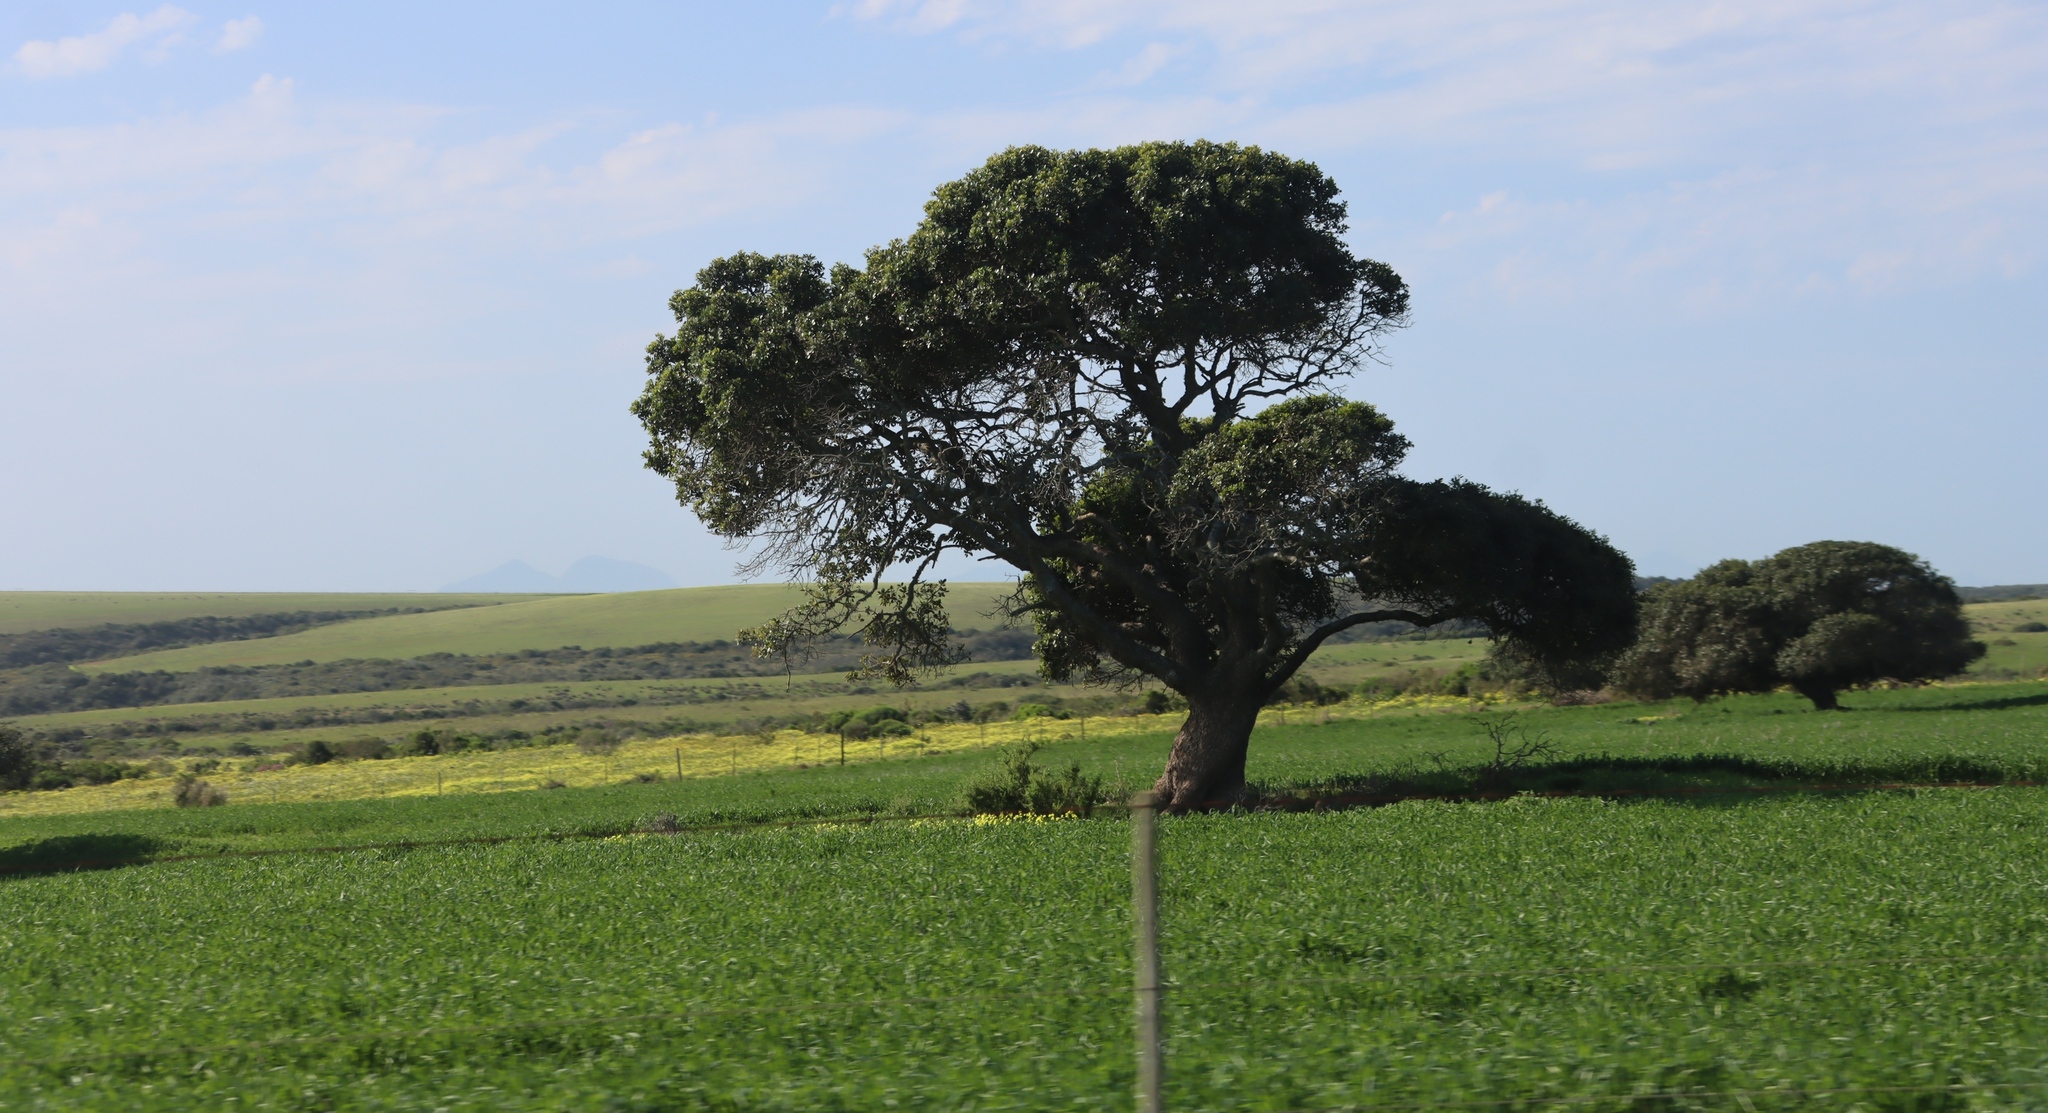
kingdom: Plantae
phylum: Tracheophyta
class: Magnoliopsida
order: Ericales
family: Sapotaceae
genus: Sideroxylon
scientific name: Sideroxylon inerme
